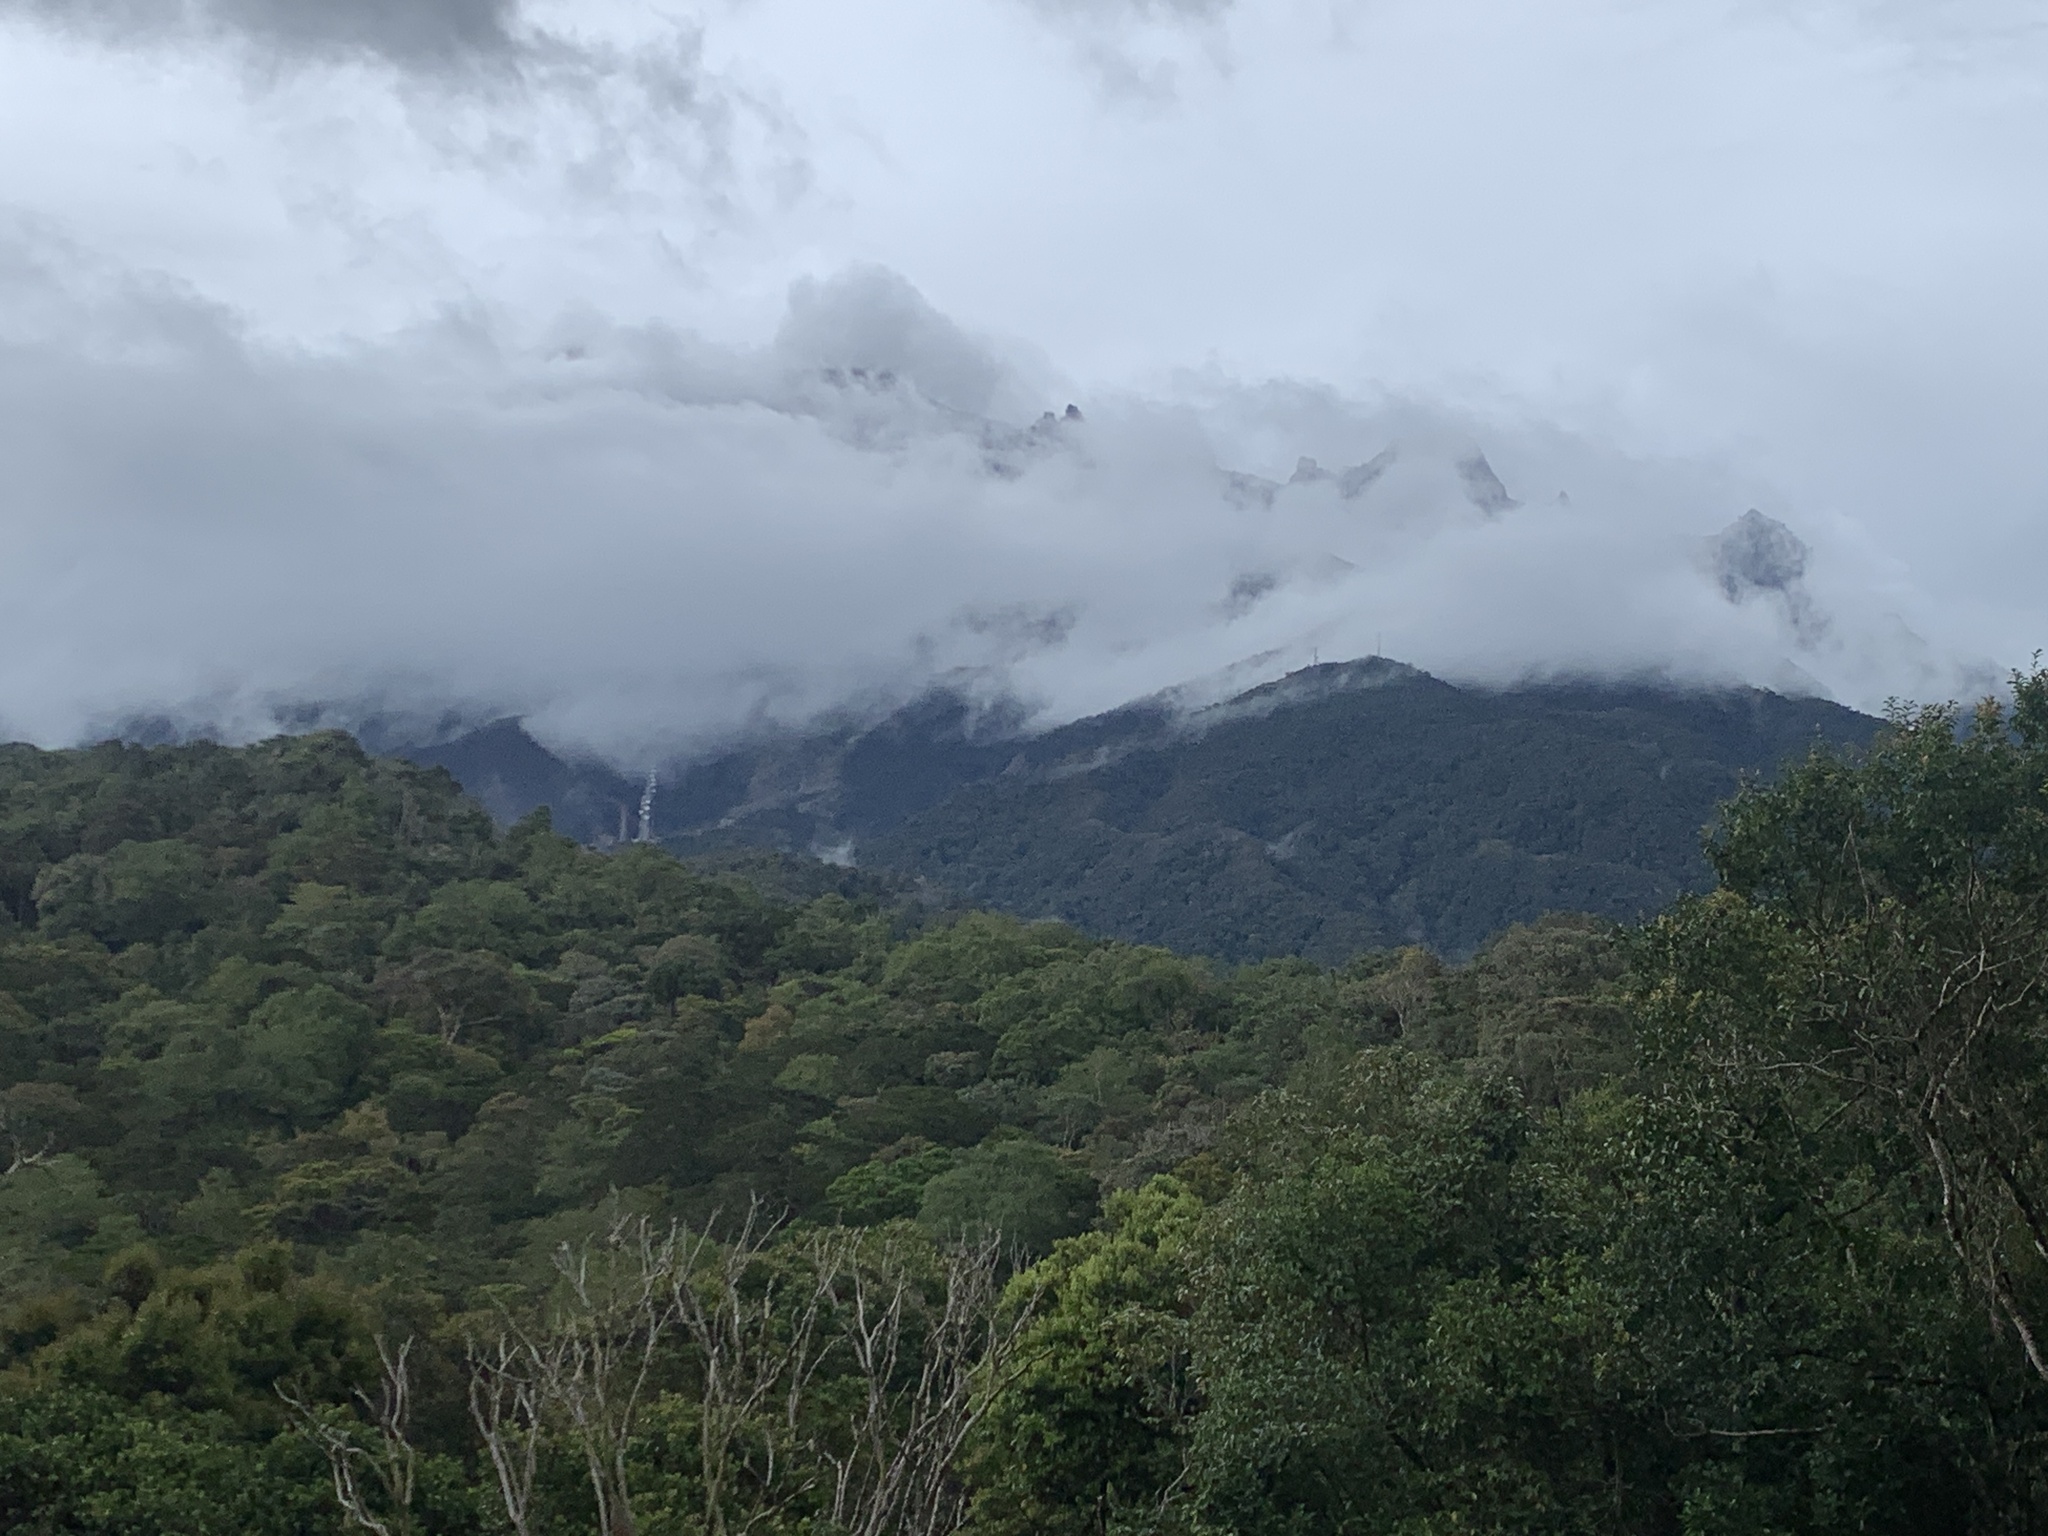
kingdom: Animalia
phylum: Chordata
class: Aves
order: Passeriformes
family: Dicaeidae
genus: Dicaeum
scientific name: Dicaeum monticolum
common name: Black-sided flowerpecker
